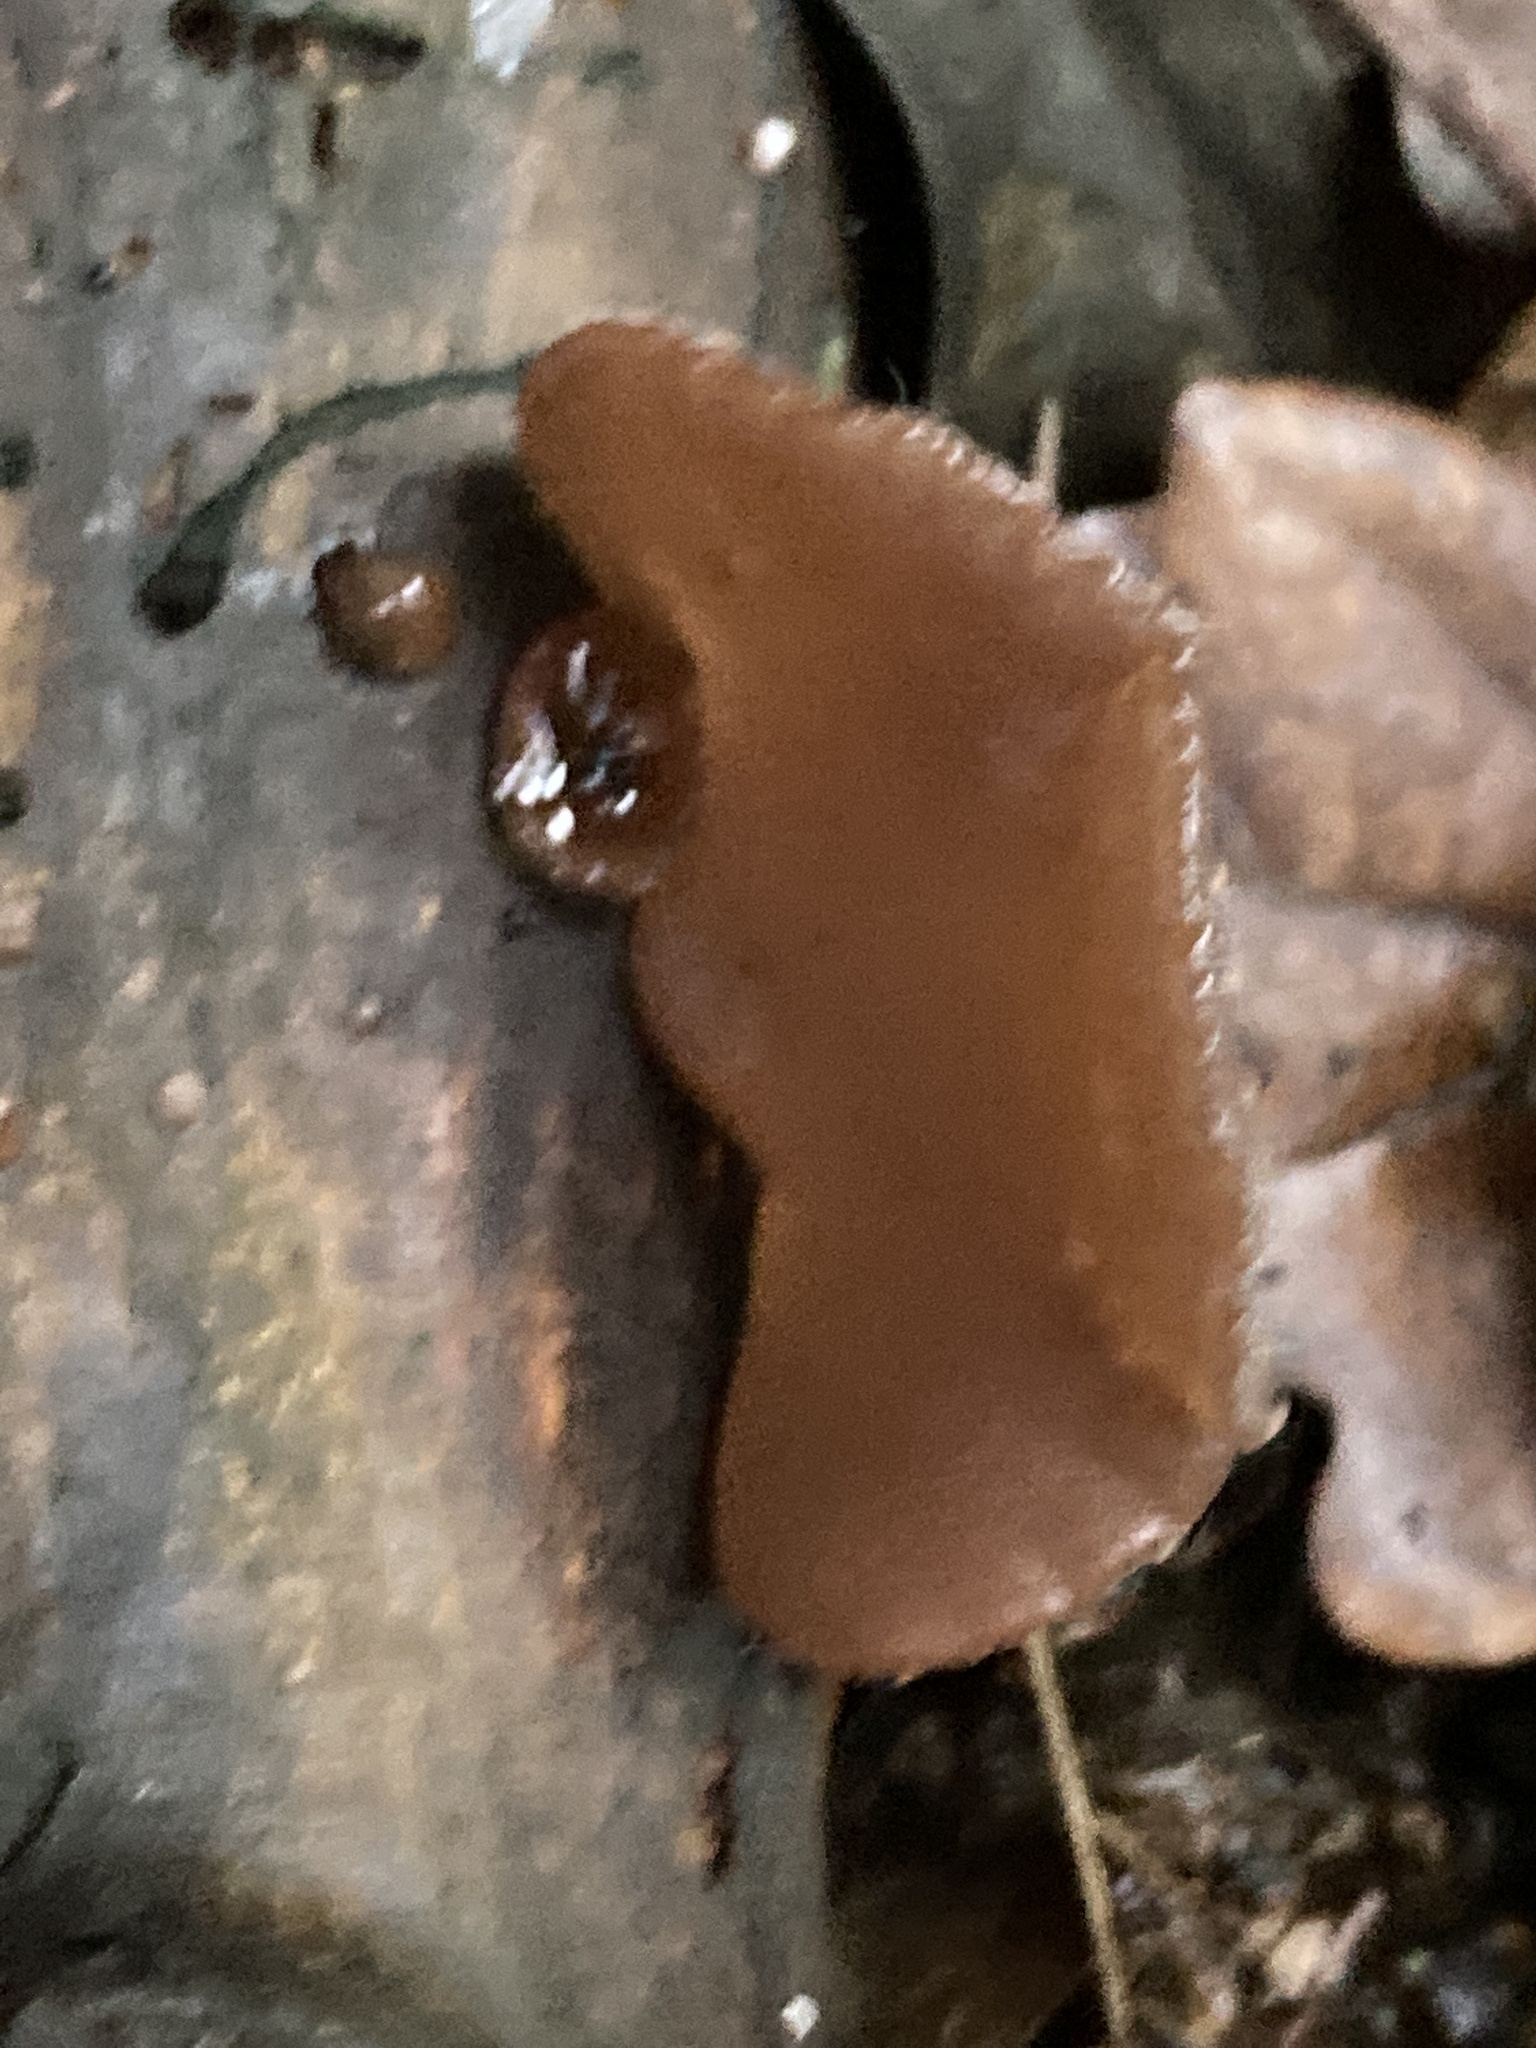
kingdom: Fungi
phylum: Basidiomycota
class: Agaricomycetes
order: Auriculariales
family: Auriculariaceae
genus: Auricularia
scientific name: Auricularia auricula-judae
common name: Jelly ear
